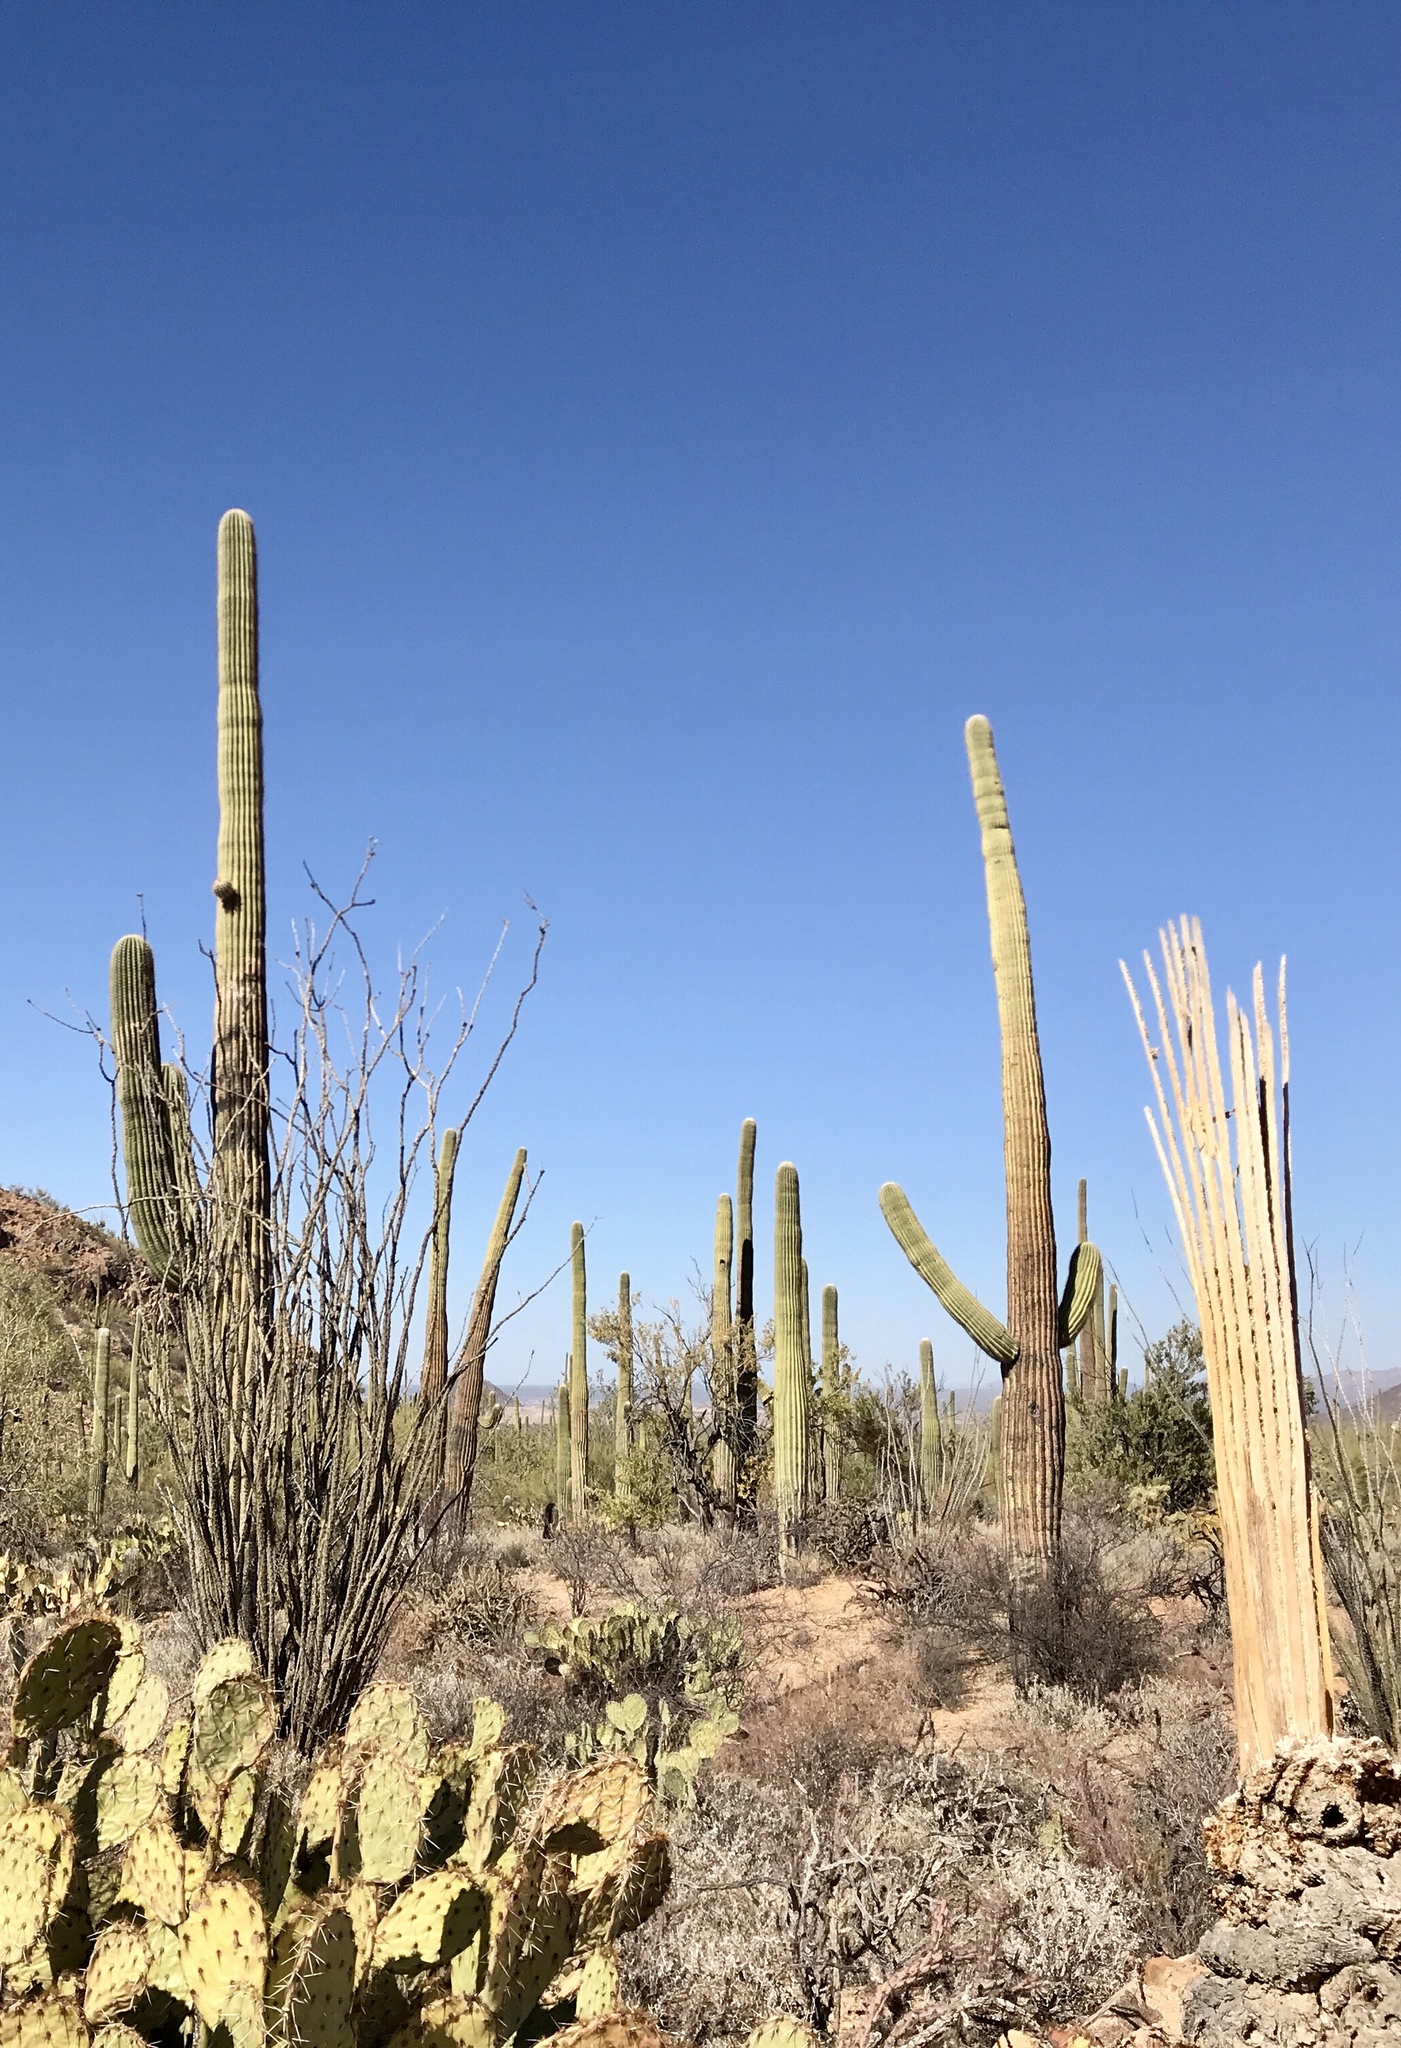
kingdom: Plantae
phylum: Tracheophyta
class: Magnoliopsida
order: Caryophyllales
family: Cactaceae
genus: Carnegiea
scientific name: Carnegiea gigantea
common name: Saguaro
